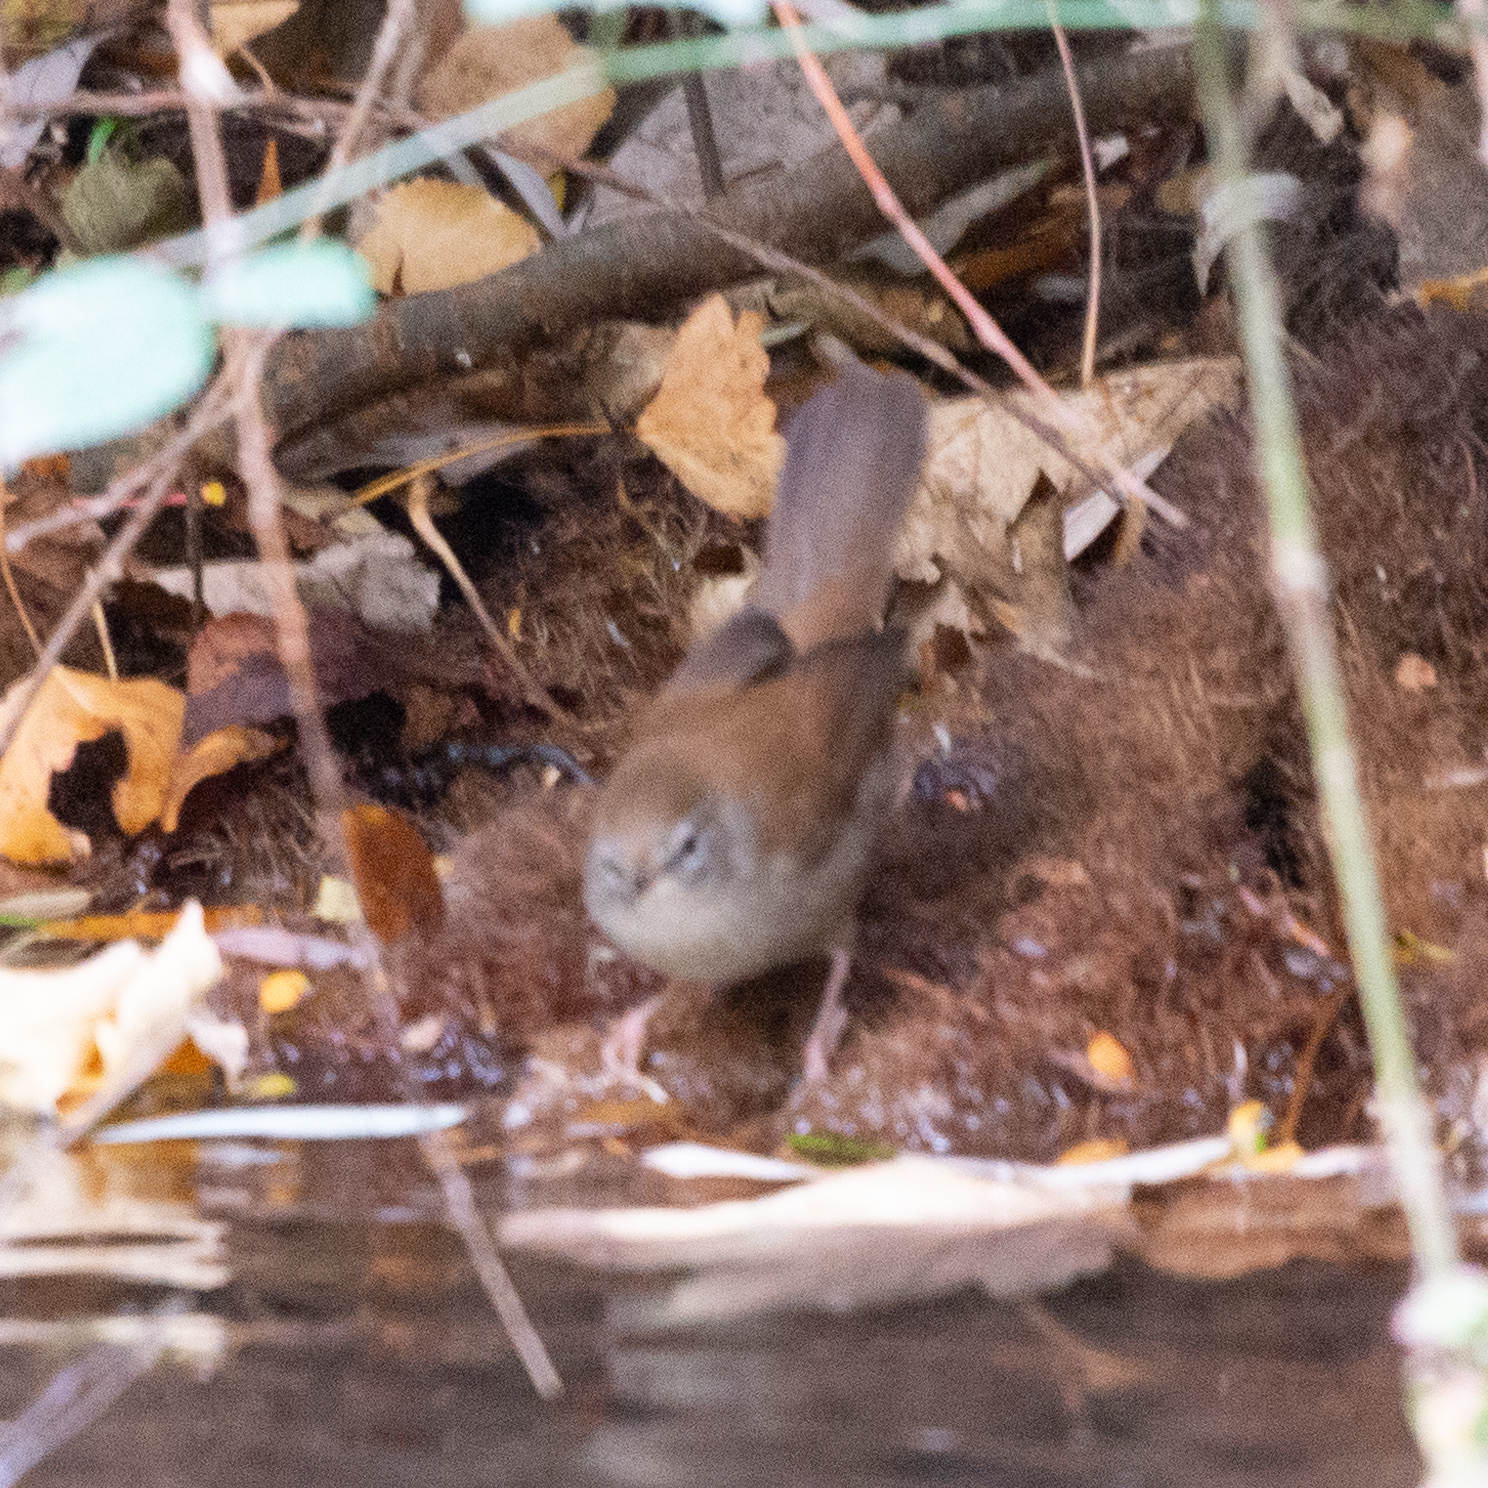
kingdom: Animalia
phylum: Chordata
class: Aves
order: Passeriformes
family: Cettiidae
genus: Cettia
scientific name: Cettia cetti
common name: Cetti's warbler
